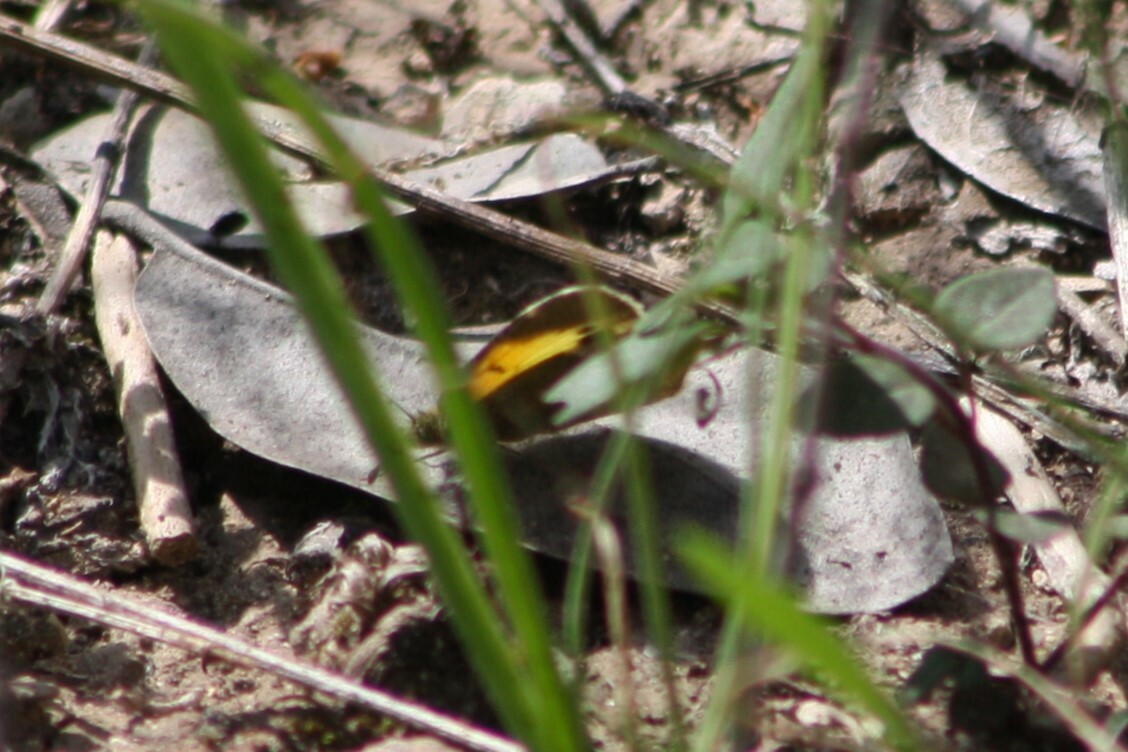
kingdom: Animalia
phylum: Arthropoda
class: Insecta
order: Lepidoptera
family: Pieridae
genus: Nathalis
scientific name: Nathalis iole
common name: Dainty sulphur
